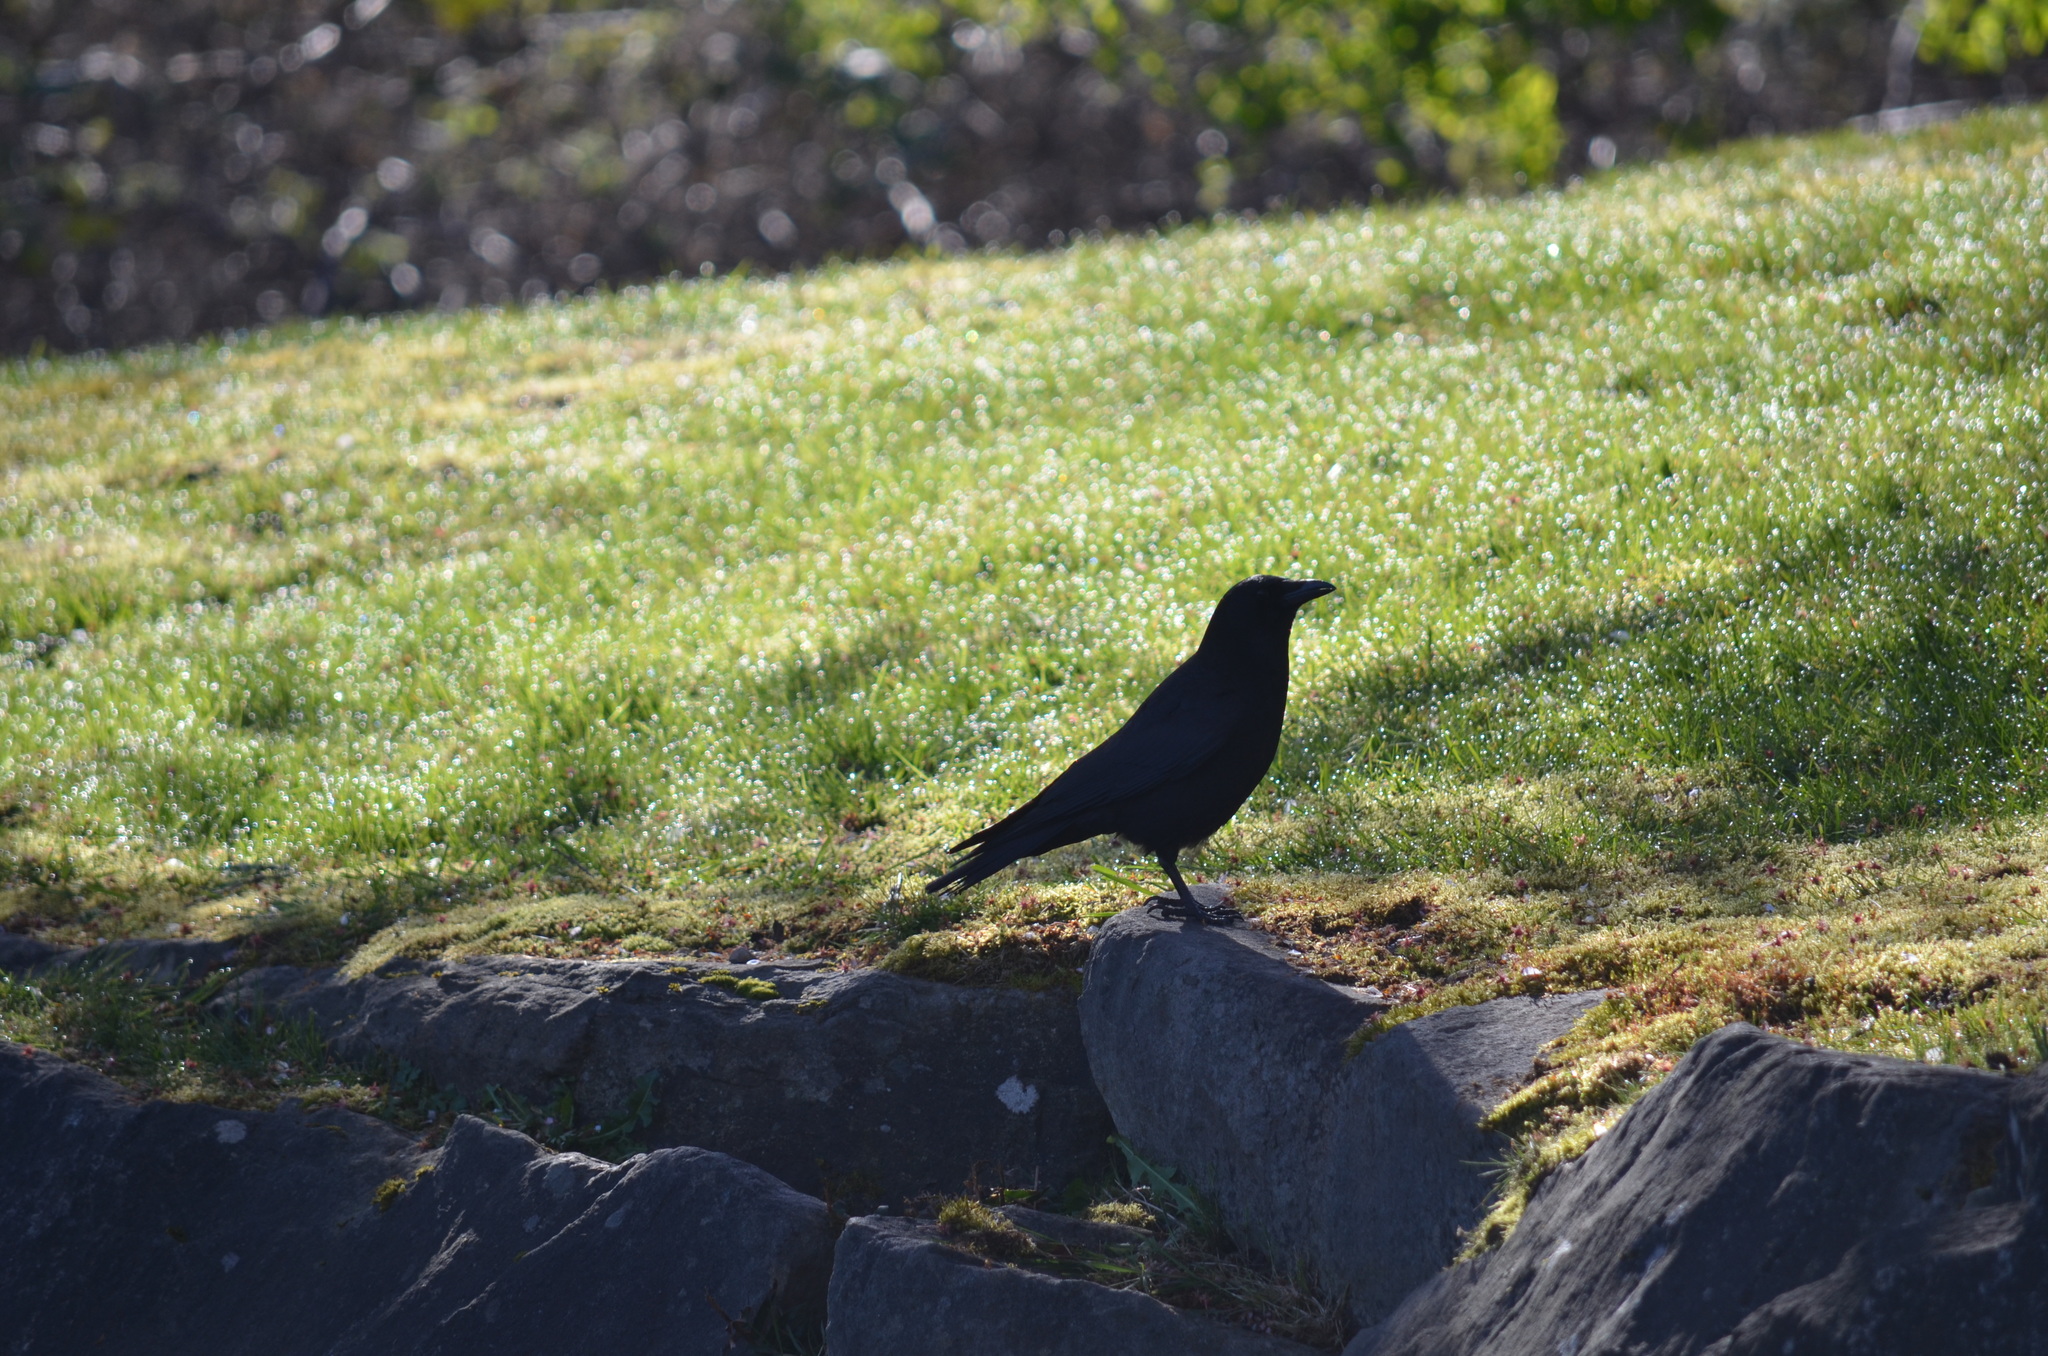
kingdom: Animalia
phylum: Chordata
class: Aves
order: Passeriformes
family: Corvidae
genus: Corvus
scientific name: Corvus brachyrhynchos
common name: American crow
